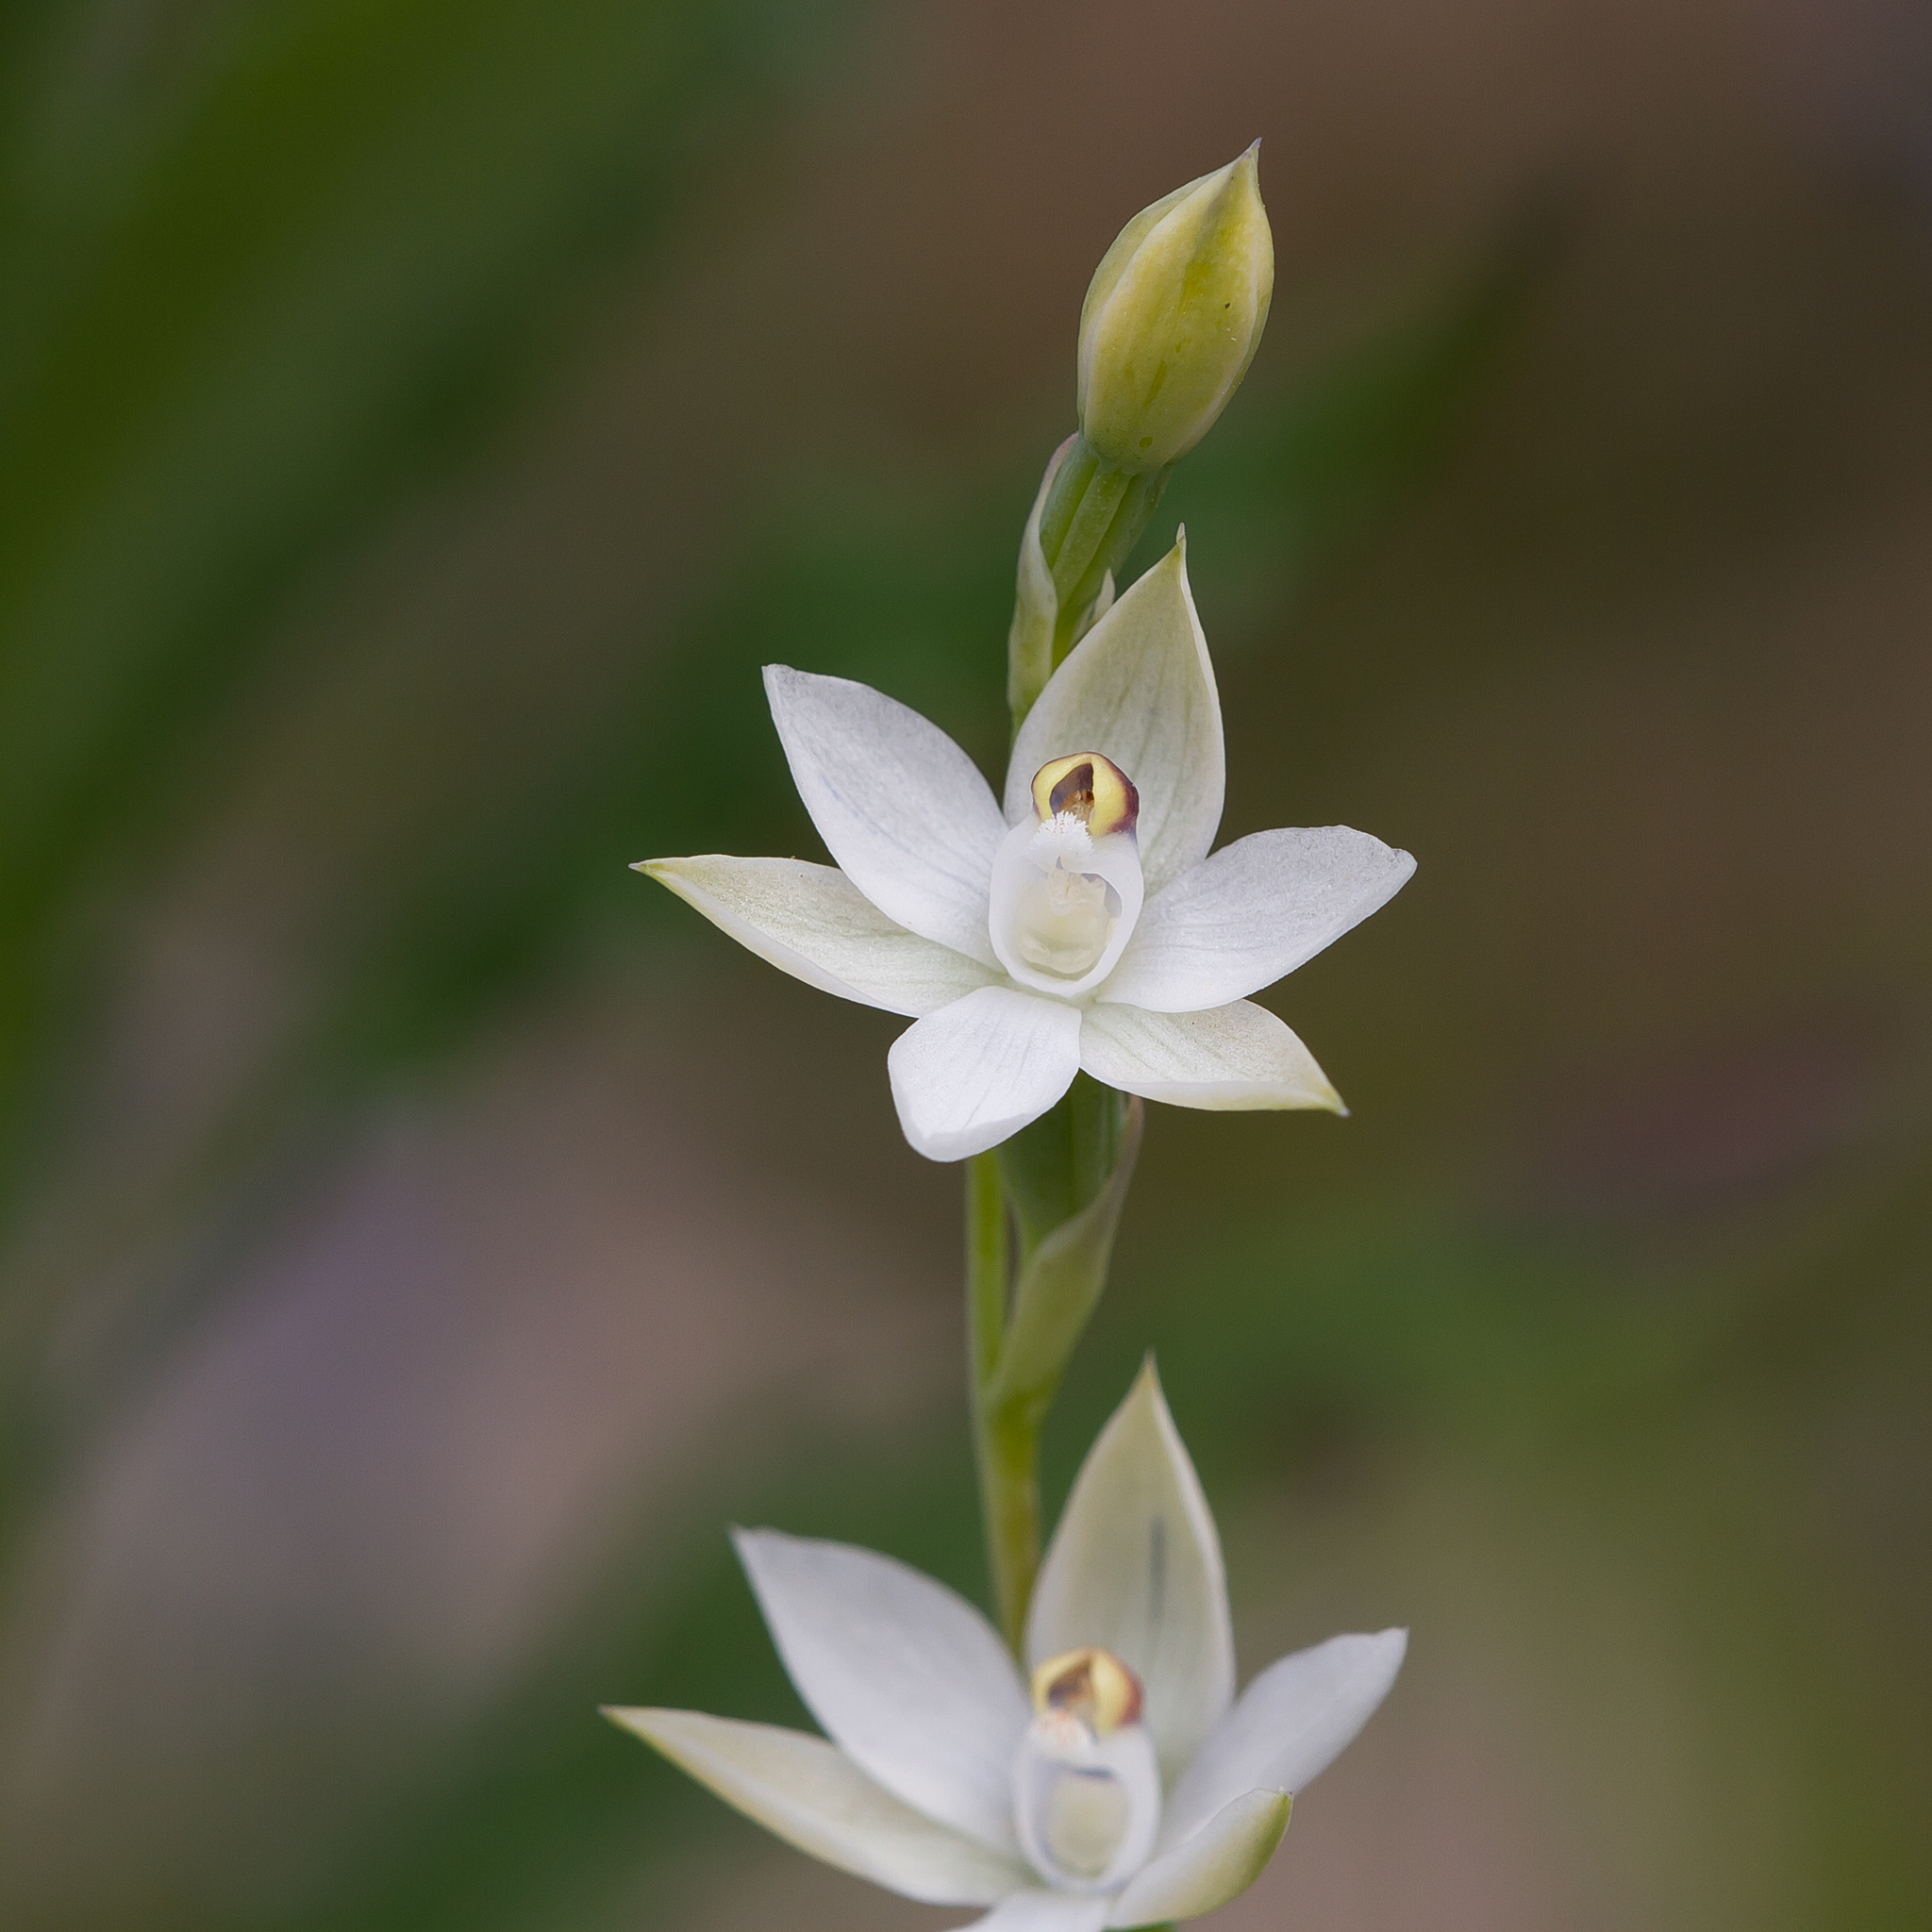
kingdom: Plantae
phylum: Tracheophyta
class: Liliopsida
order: Asparagales
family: Orchidaceae
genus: Thelymitra
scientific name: Thelymitra albiflora
